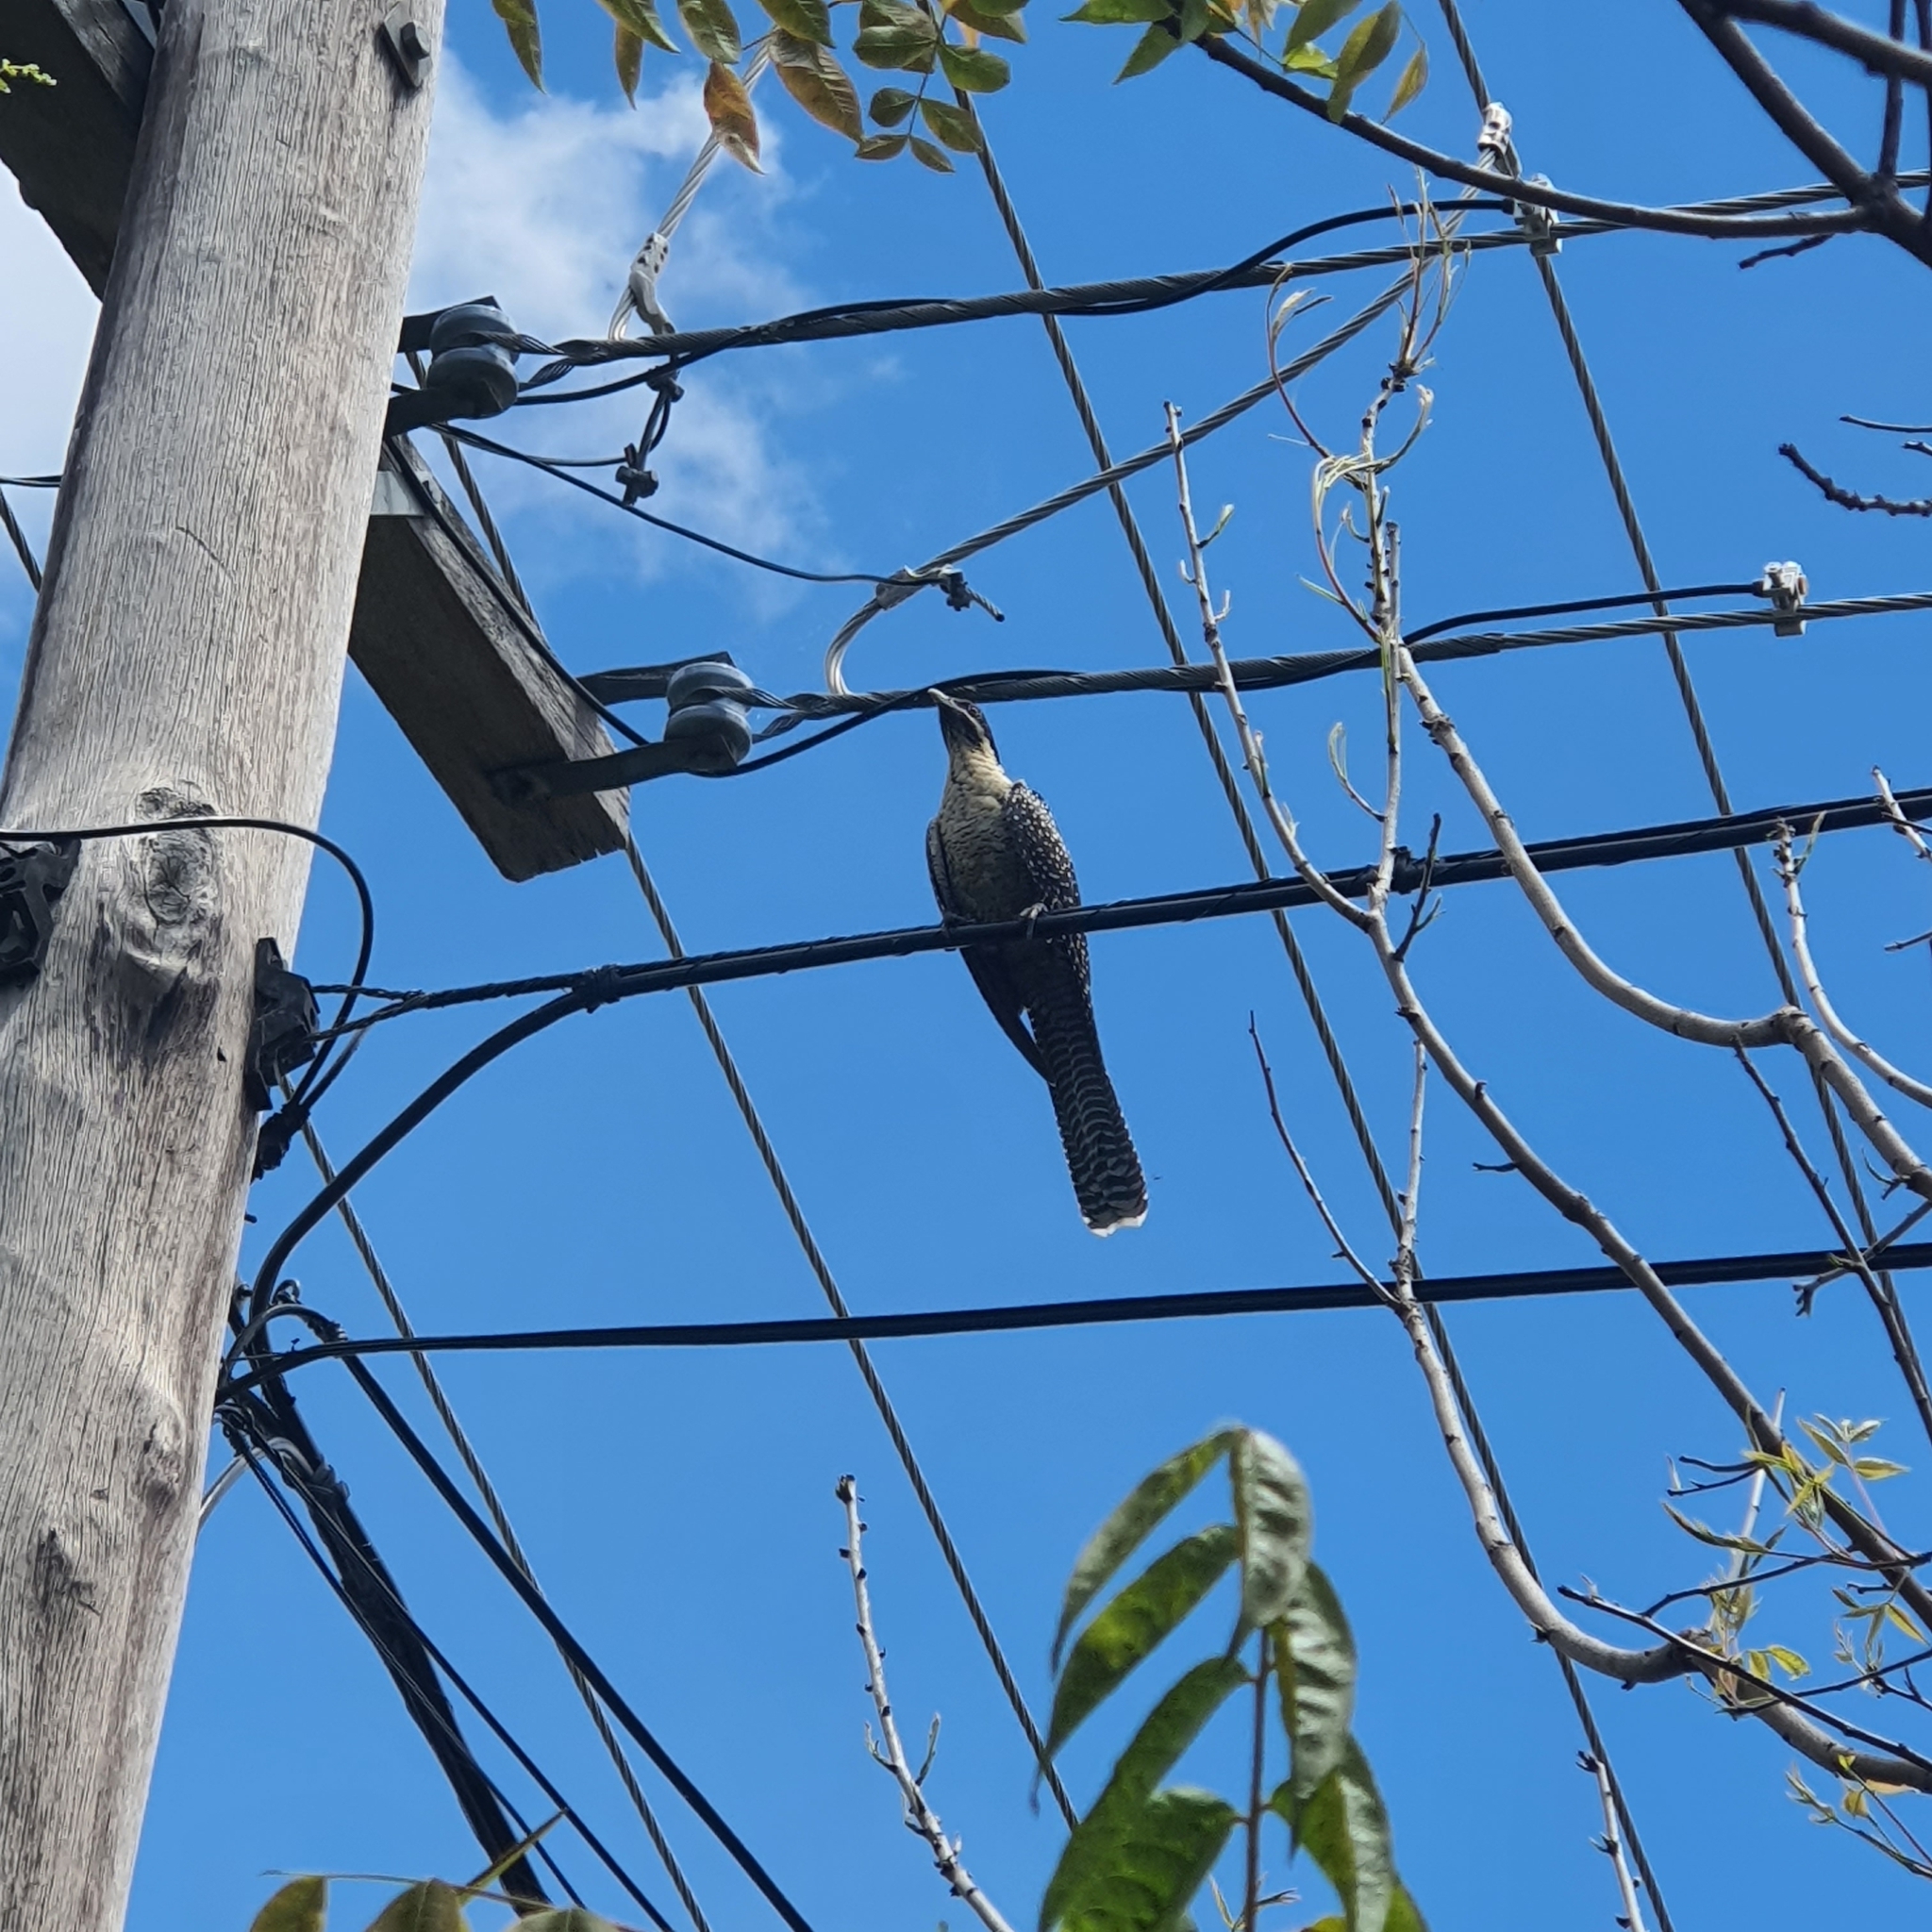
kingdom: Animalia
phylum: Chordata
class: Aves
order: Cuculiformes
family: Cuculidae
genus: Eudynamys
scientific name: Eudynamys orientalis
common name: Pacific koel
